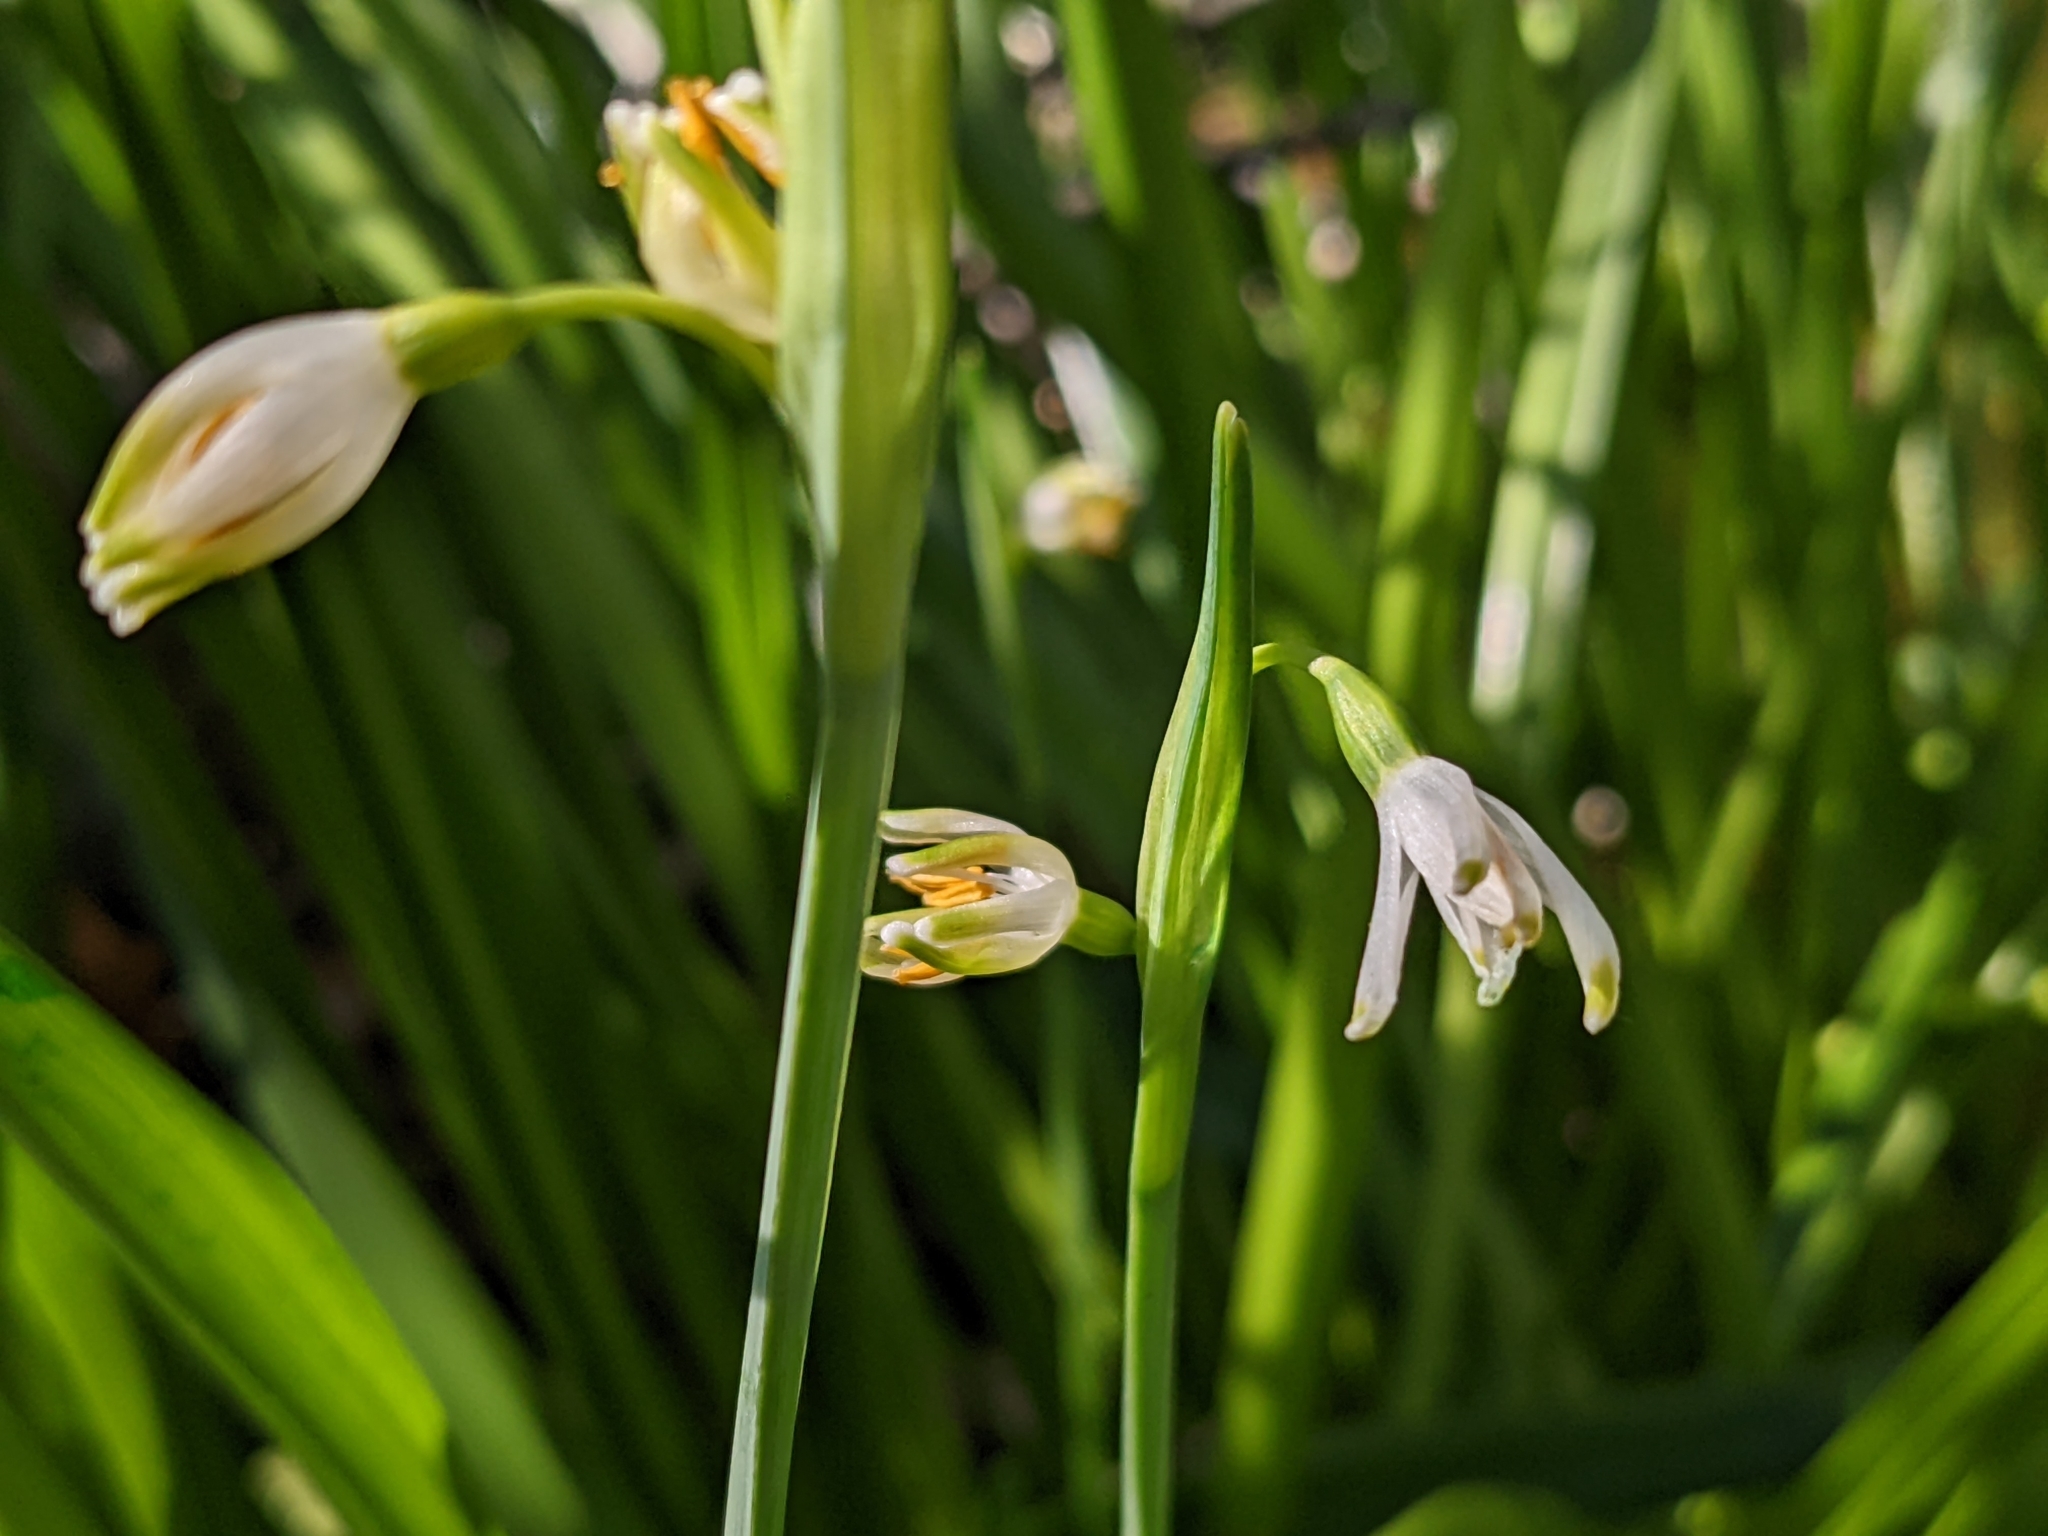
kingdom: Plantae
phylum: Tracheophyta
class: Liliopsida
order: Asparagales
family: Amaryllidaceae
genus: Leucojum
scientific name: Leucojum aestivum
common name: Summer snowflake
